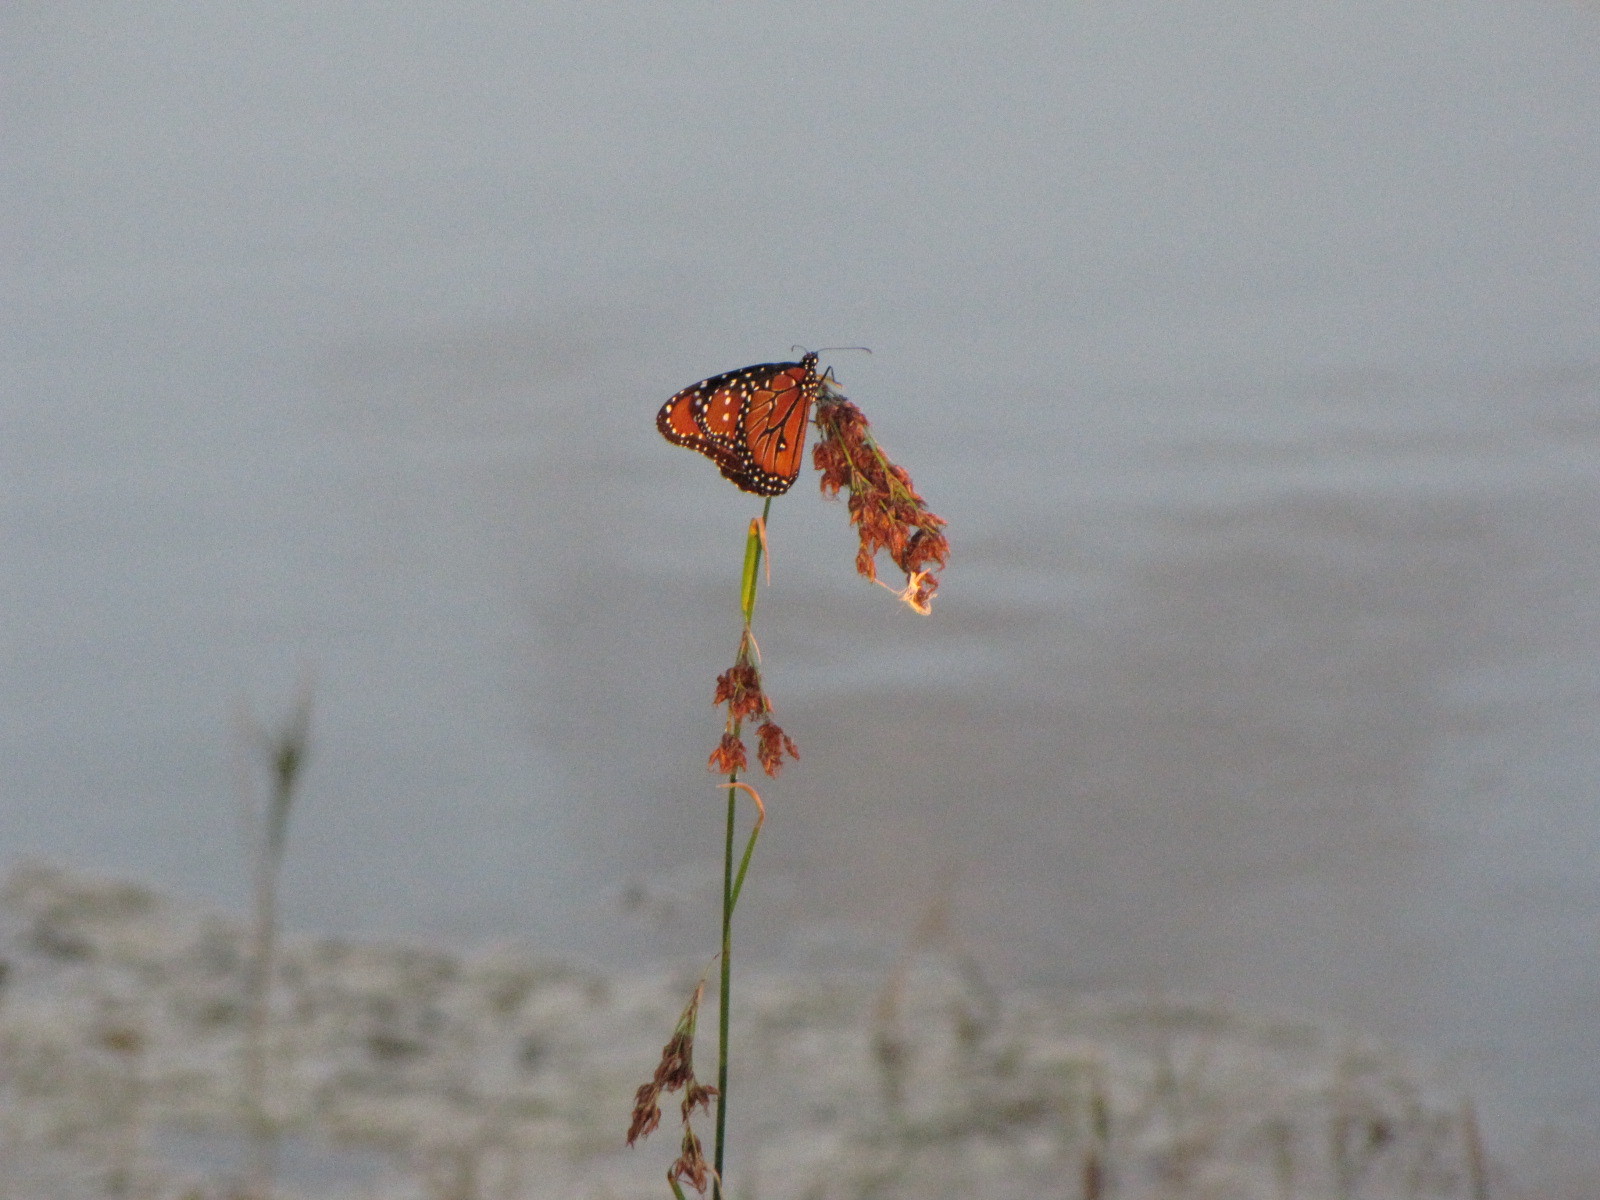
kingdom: Animalia
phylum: Arthropoda
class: Insecta
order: Lepidoptera
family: Nymphalidae
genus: Danaus
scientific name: Danaus gilippus
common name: Queen
